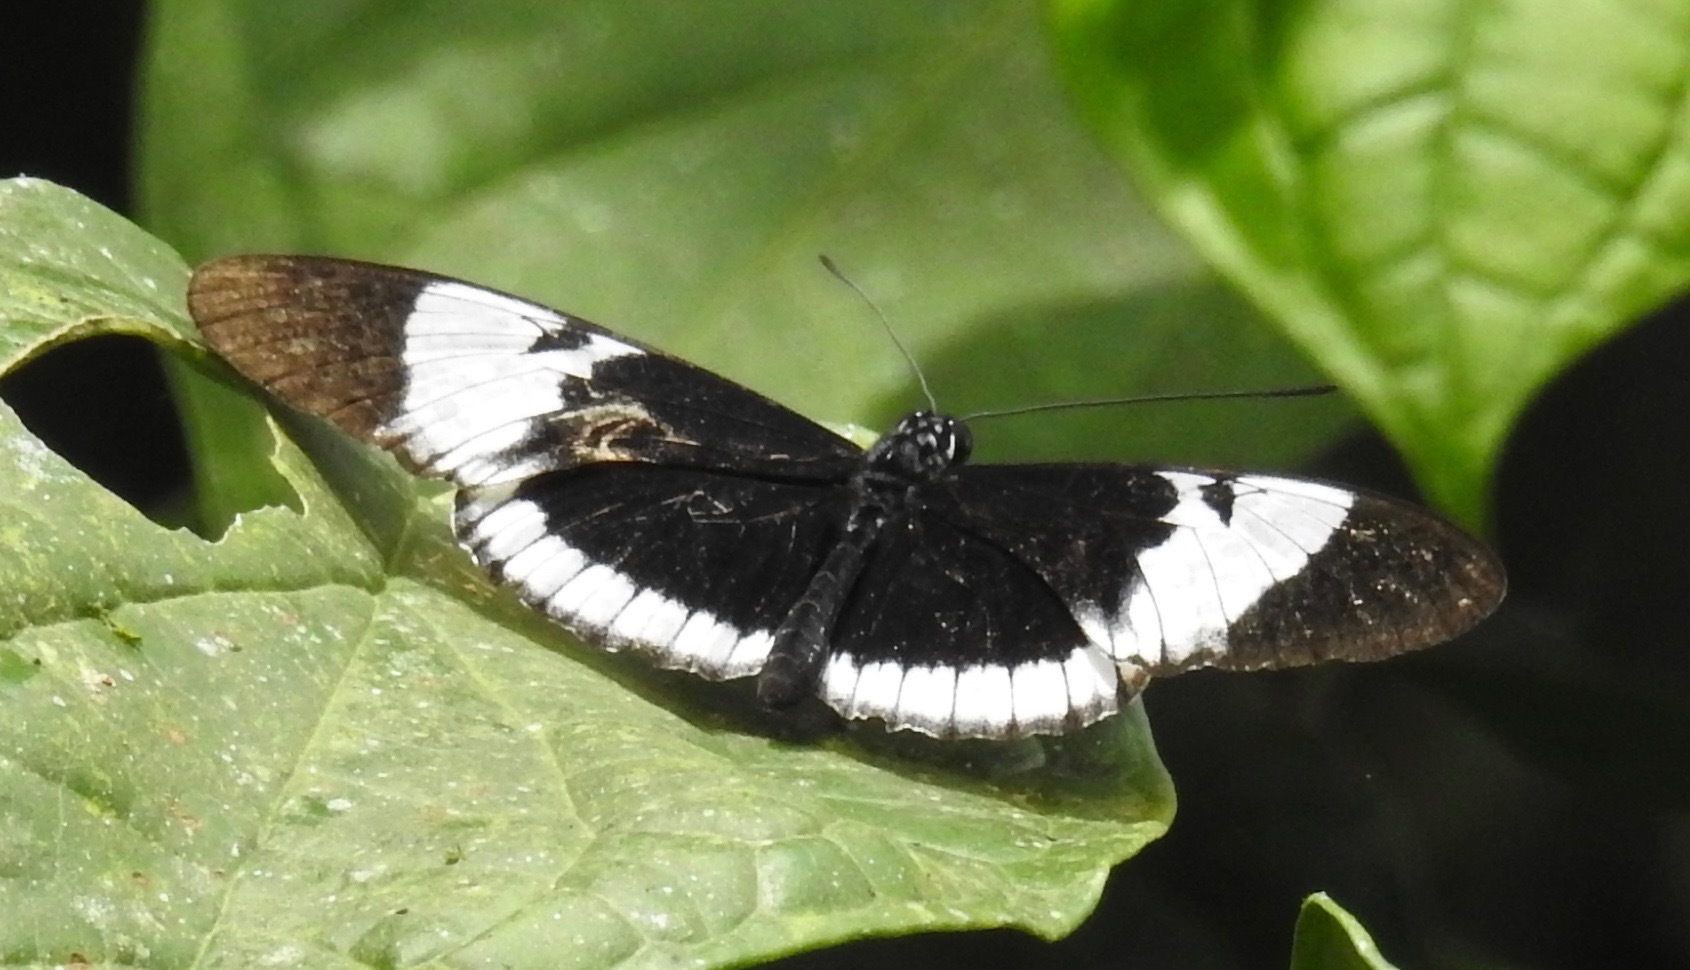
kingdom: Animalia
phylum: Arthropoda
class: Insecta
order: Lepidoptera
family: Nymphalidae
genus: Heliconius
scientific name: Heliconius cydno
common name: Cydno longwing
